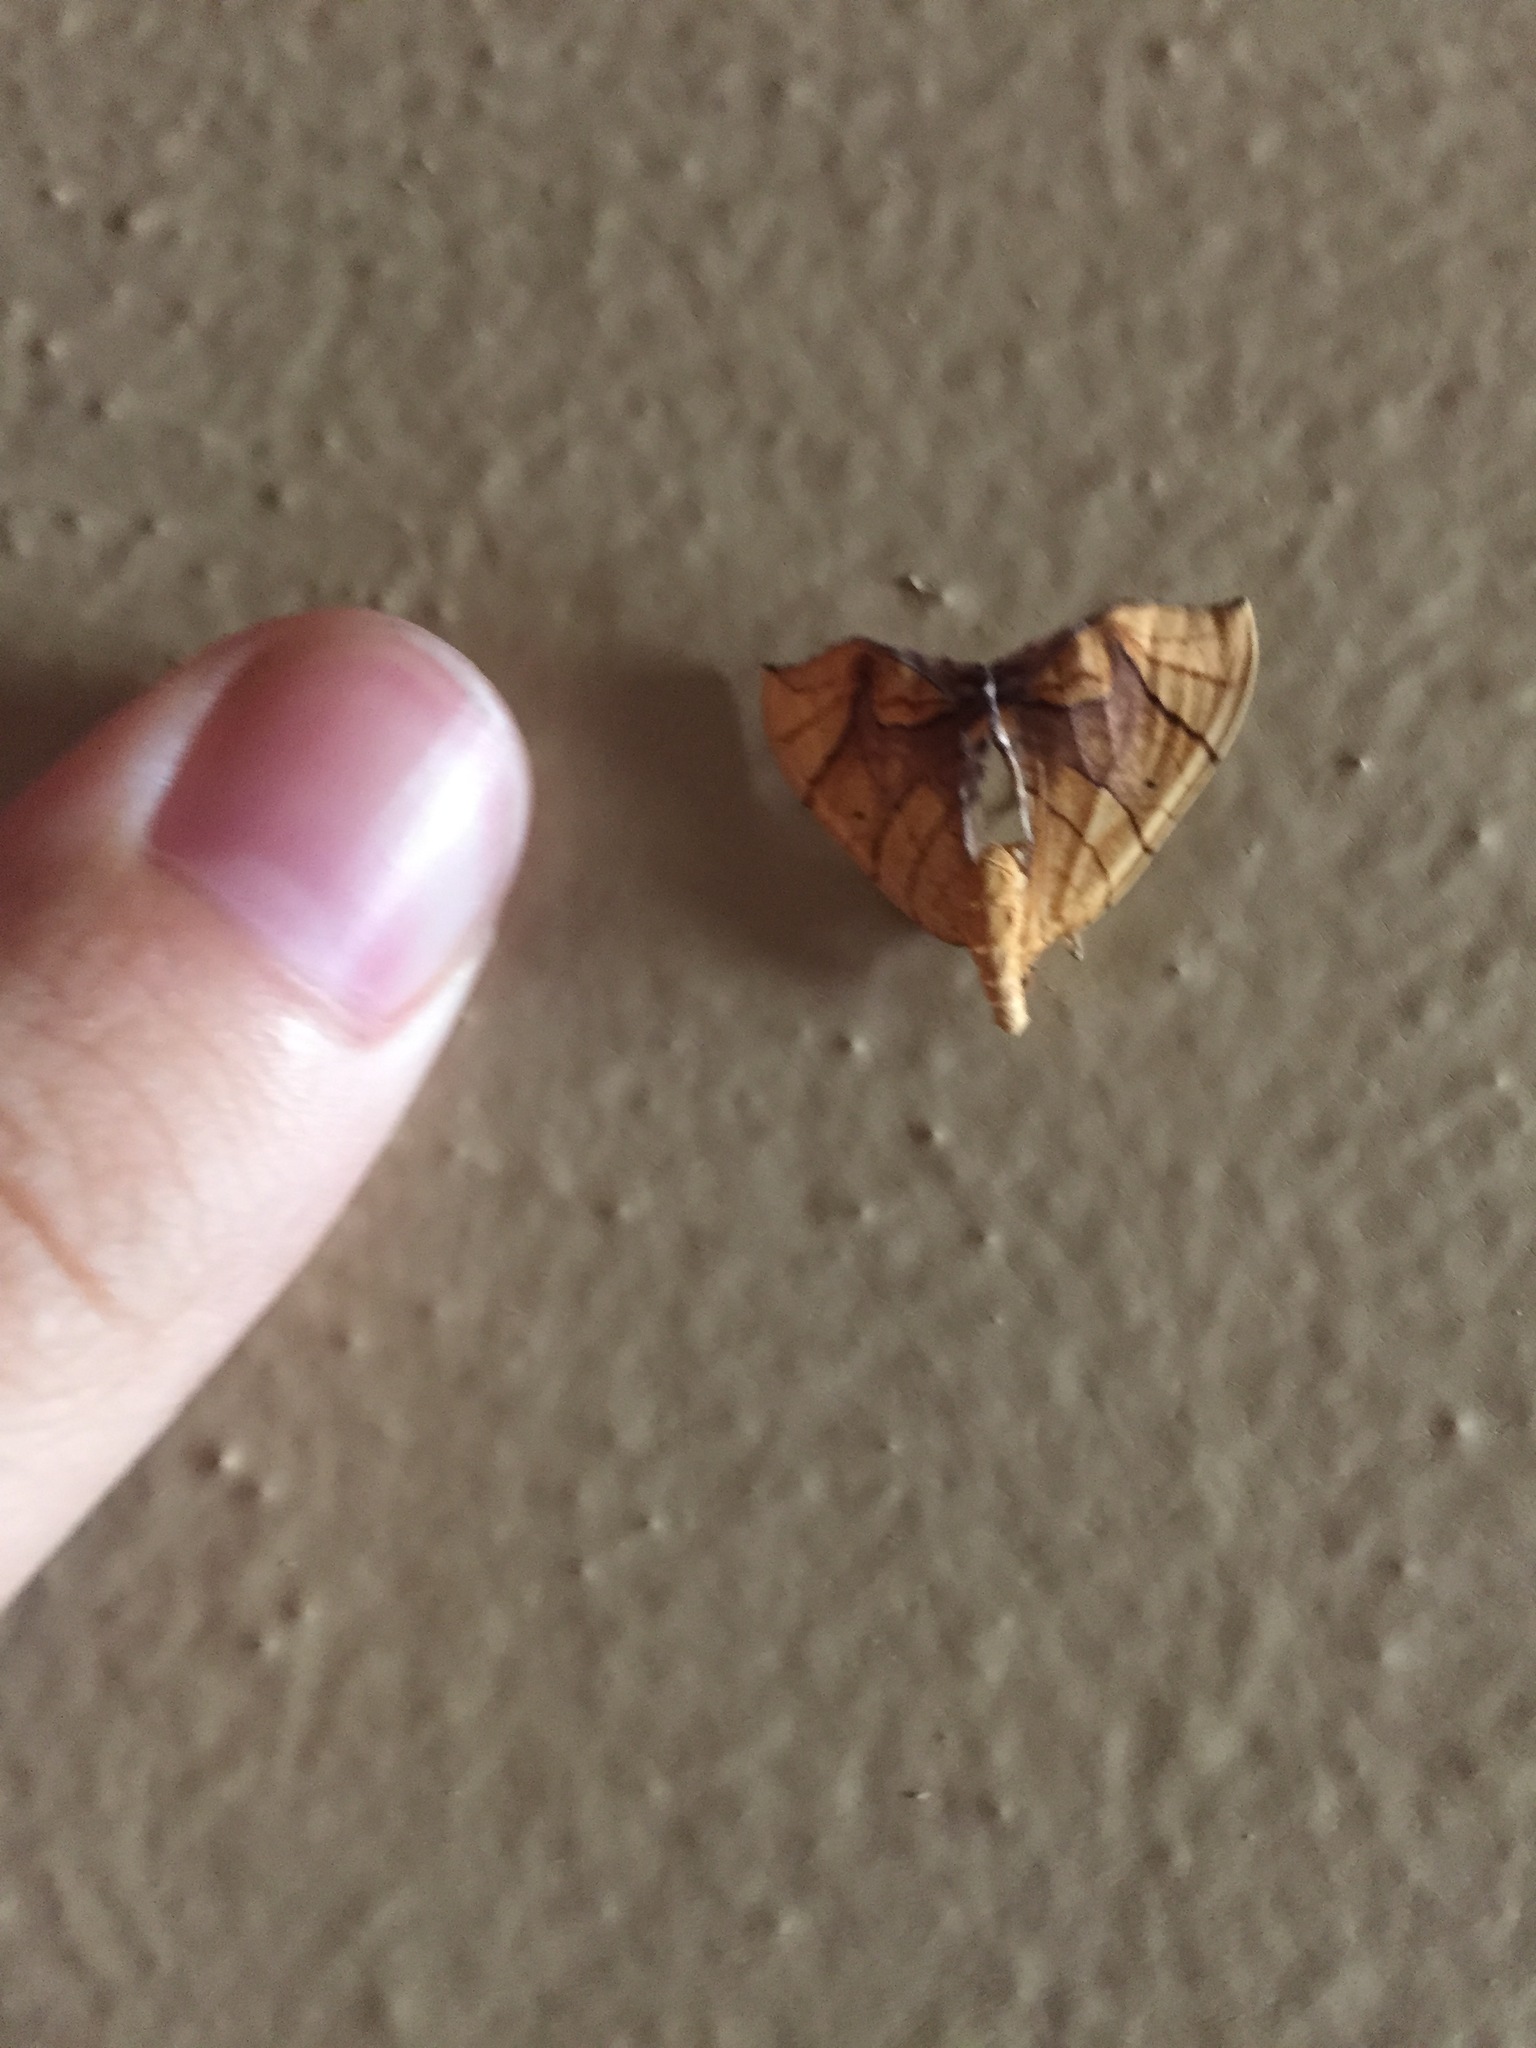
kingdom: Animalia
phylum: Arthropoda
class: Insecta
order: Lepidoptera
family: Geometridae
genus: Eulithis
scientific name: Eulithis diversilineata
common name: Grapevine looper
